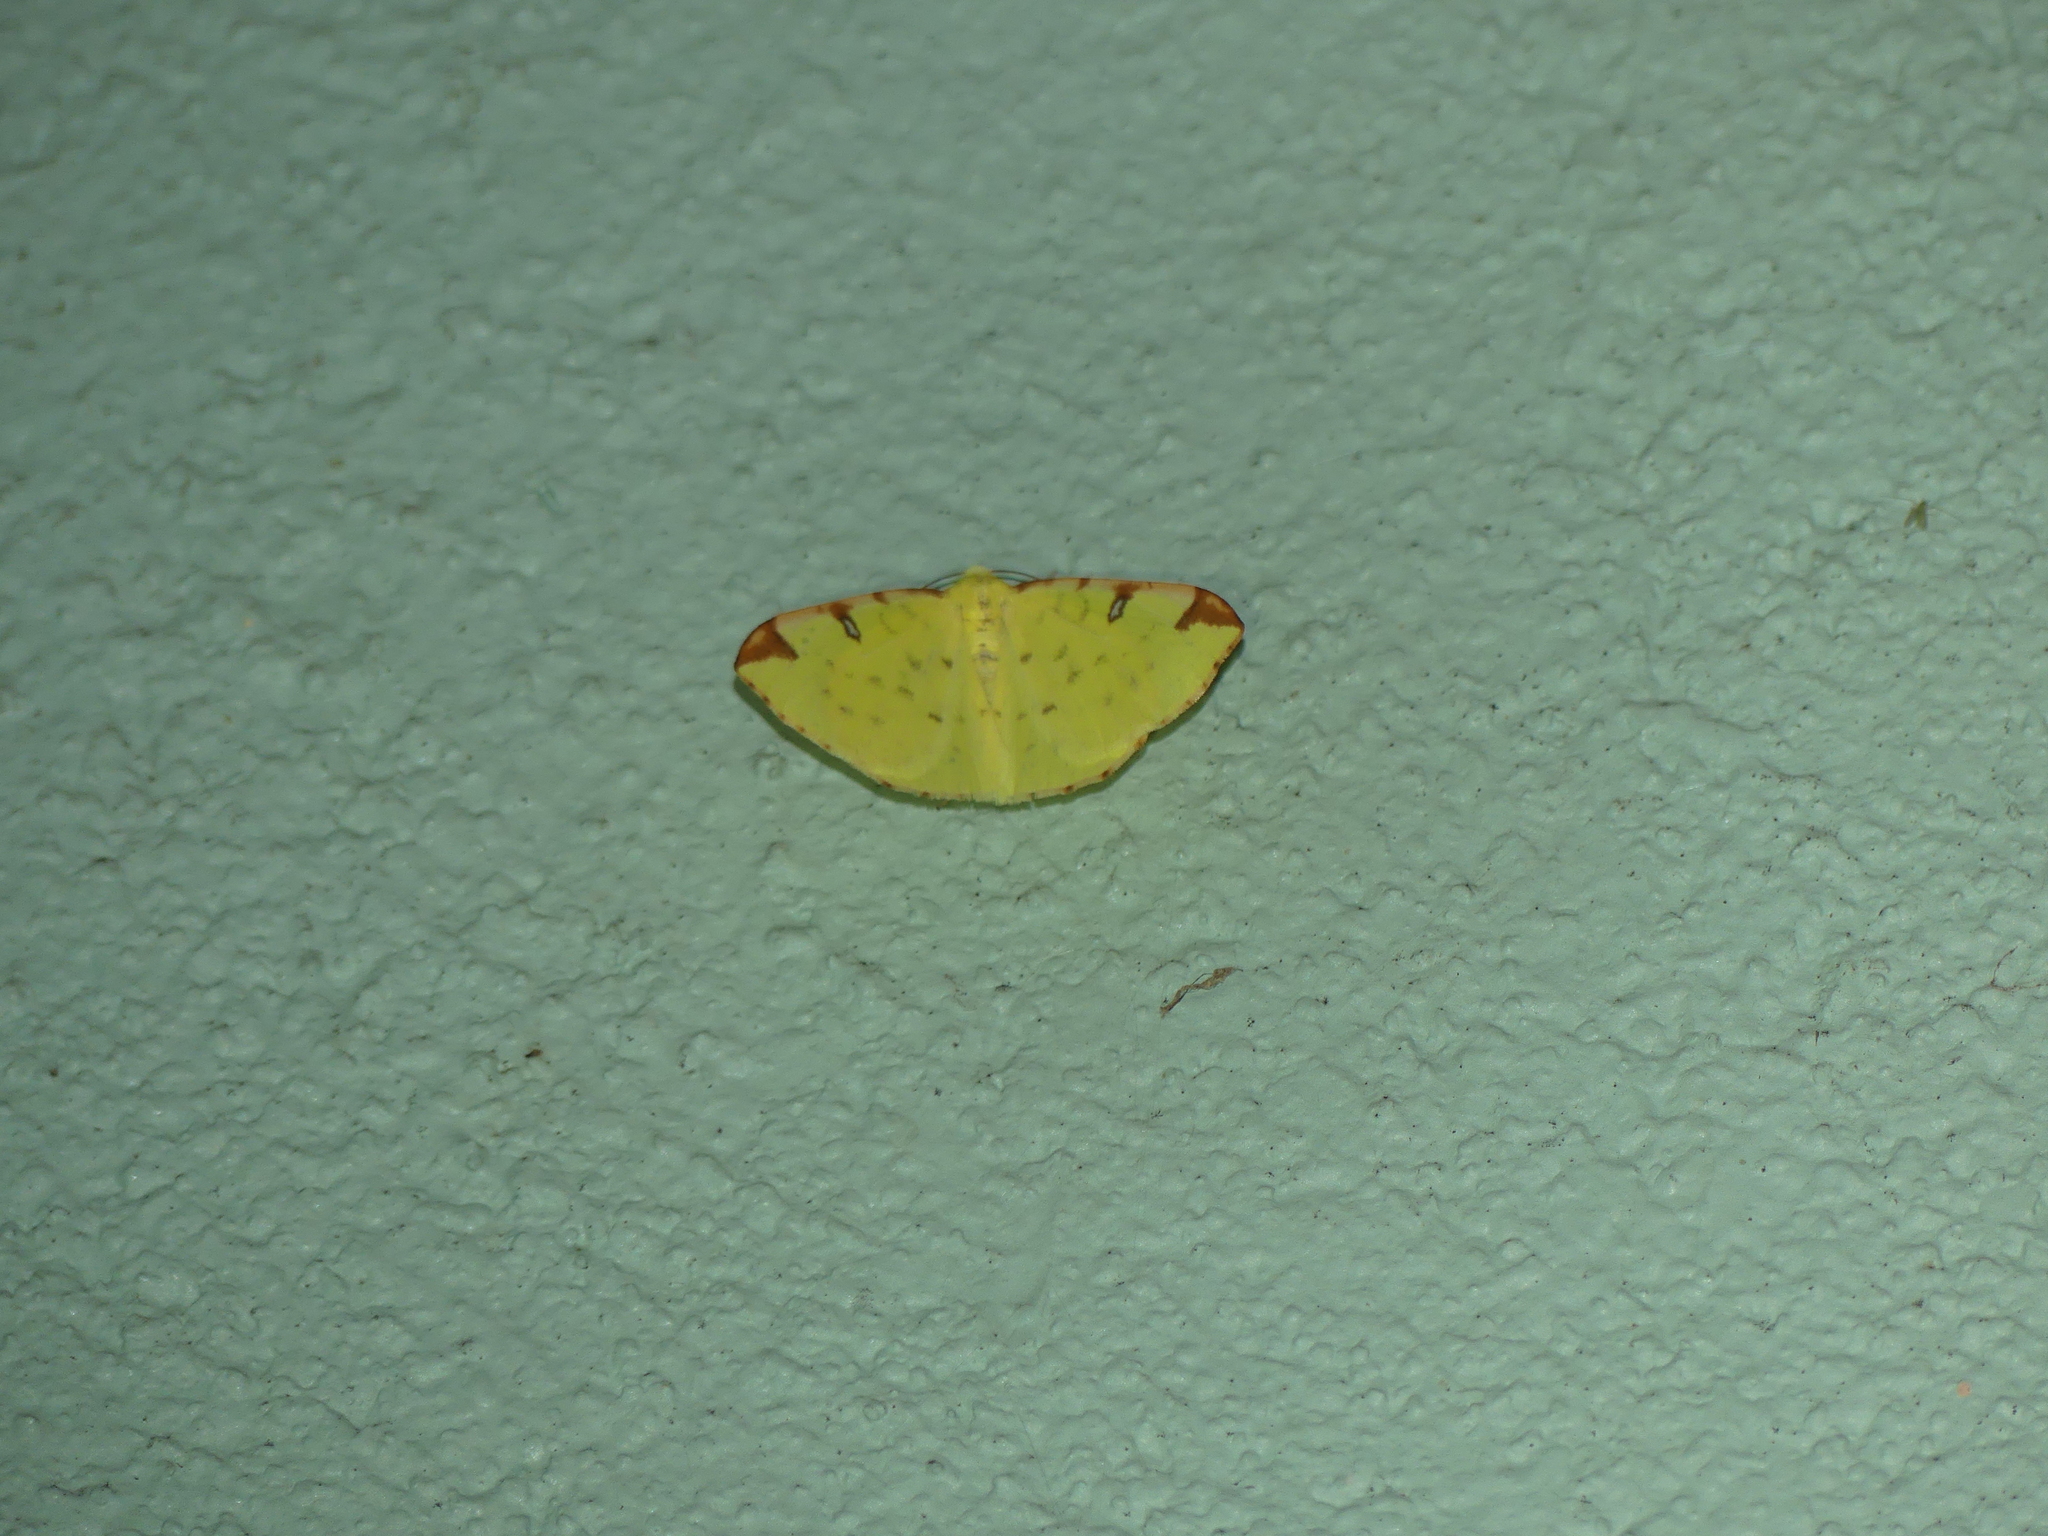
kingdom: Animalia
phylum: Arthropoda
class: Insecta
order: Lepidoptera
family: Geometridae
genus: Opisthograptis
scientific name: Opisthograptis luteolata
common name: Brimstone moth
